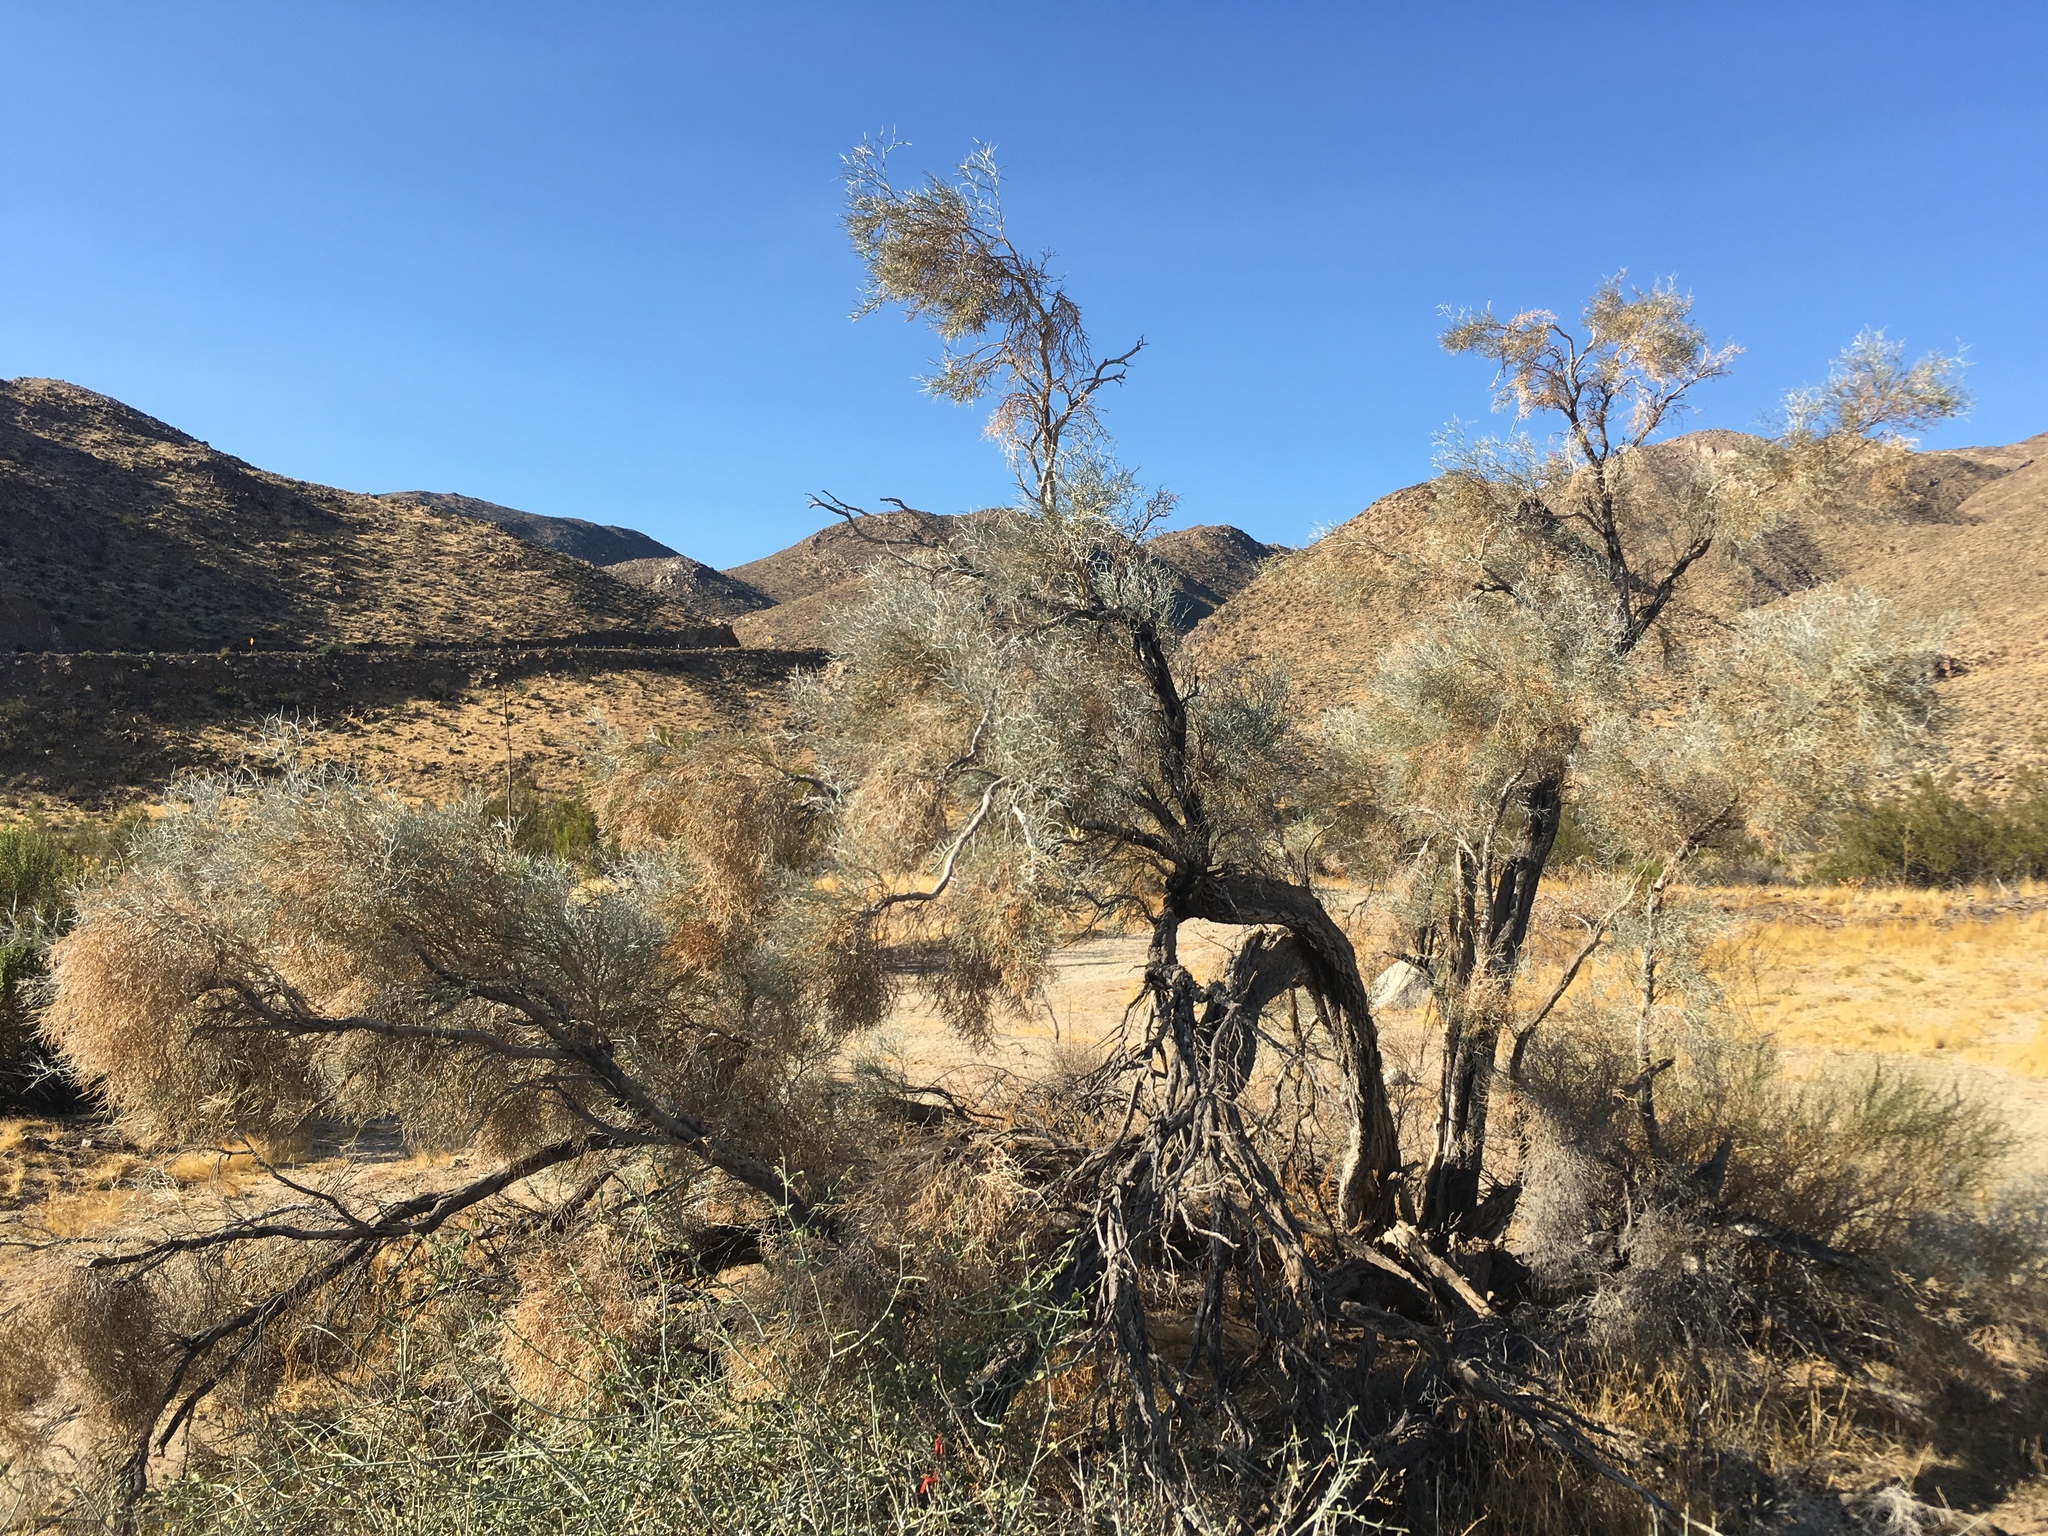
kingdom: Plantae
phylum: Tracheophyta
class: Magnoliopsida
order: Fabales
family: Fabaceae
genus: Psorothamnus
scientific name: Psorothamnus spinosus
